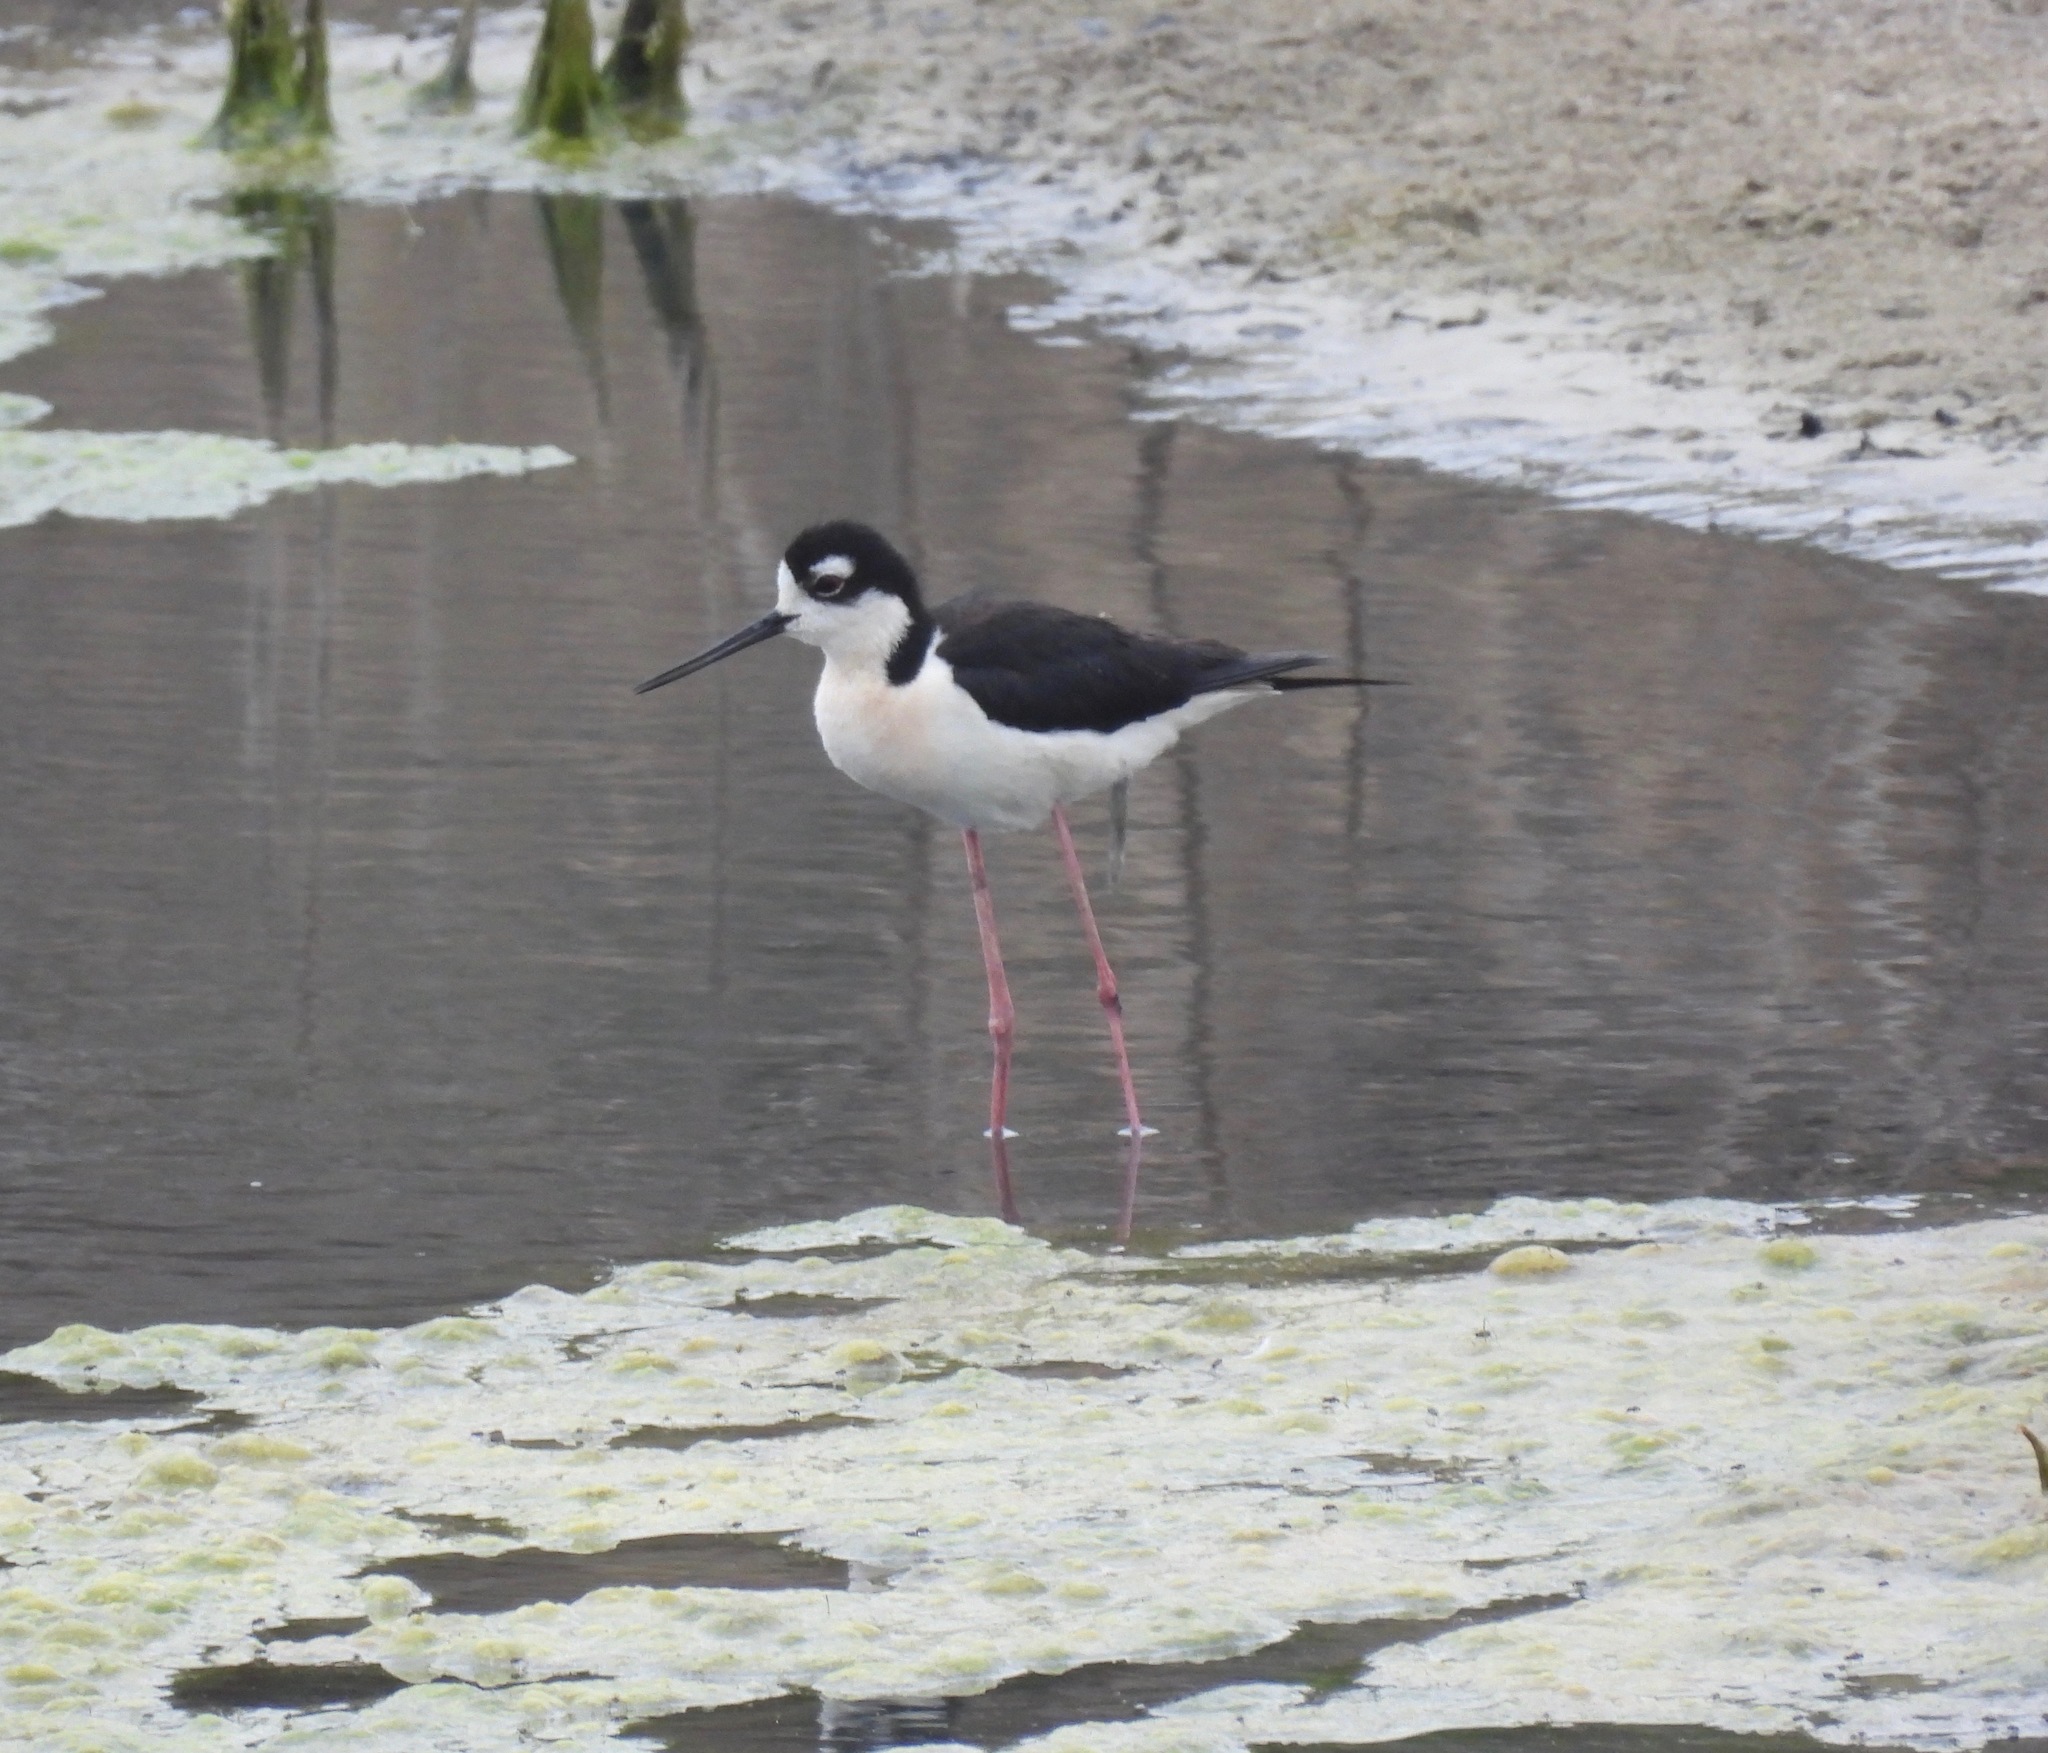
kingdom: Animalia
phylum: Chordata
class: Aves
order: Charadriiformes
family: Recurvirostridae
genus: Himantopus
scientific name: Himantopus mexicanus
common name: Black-necked stilt
